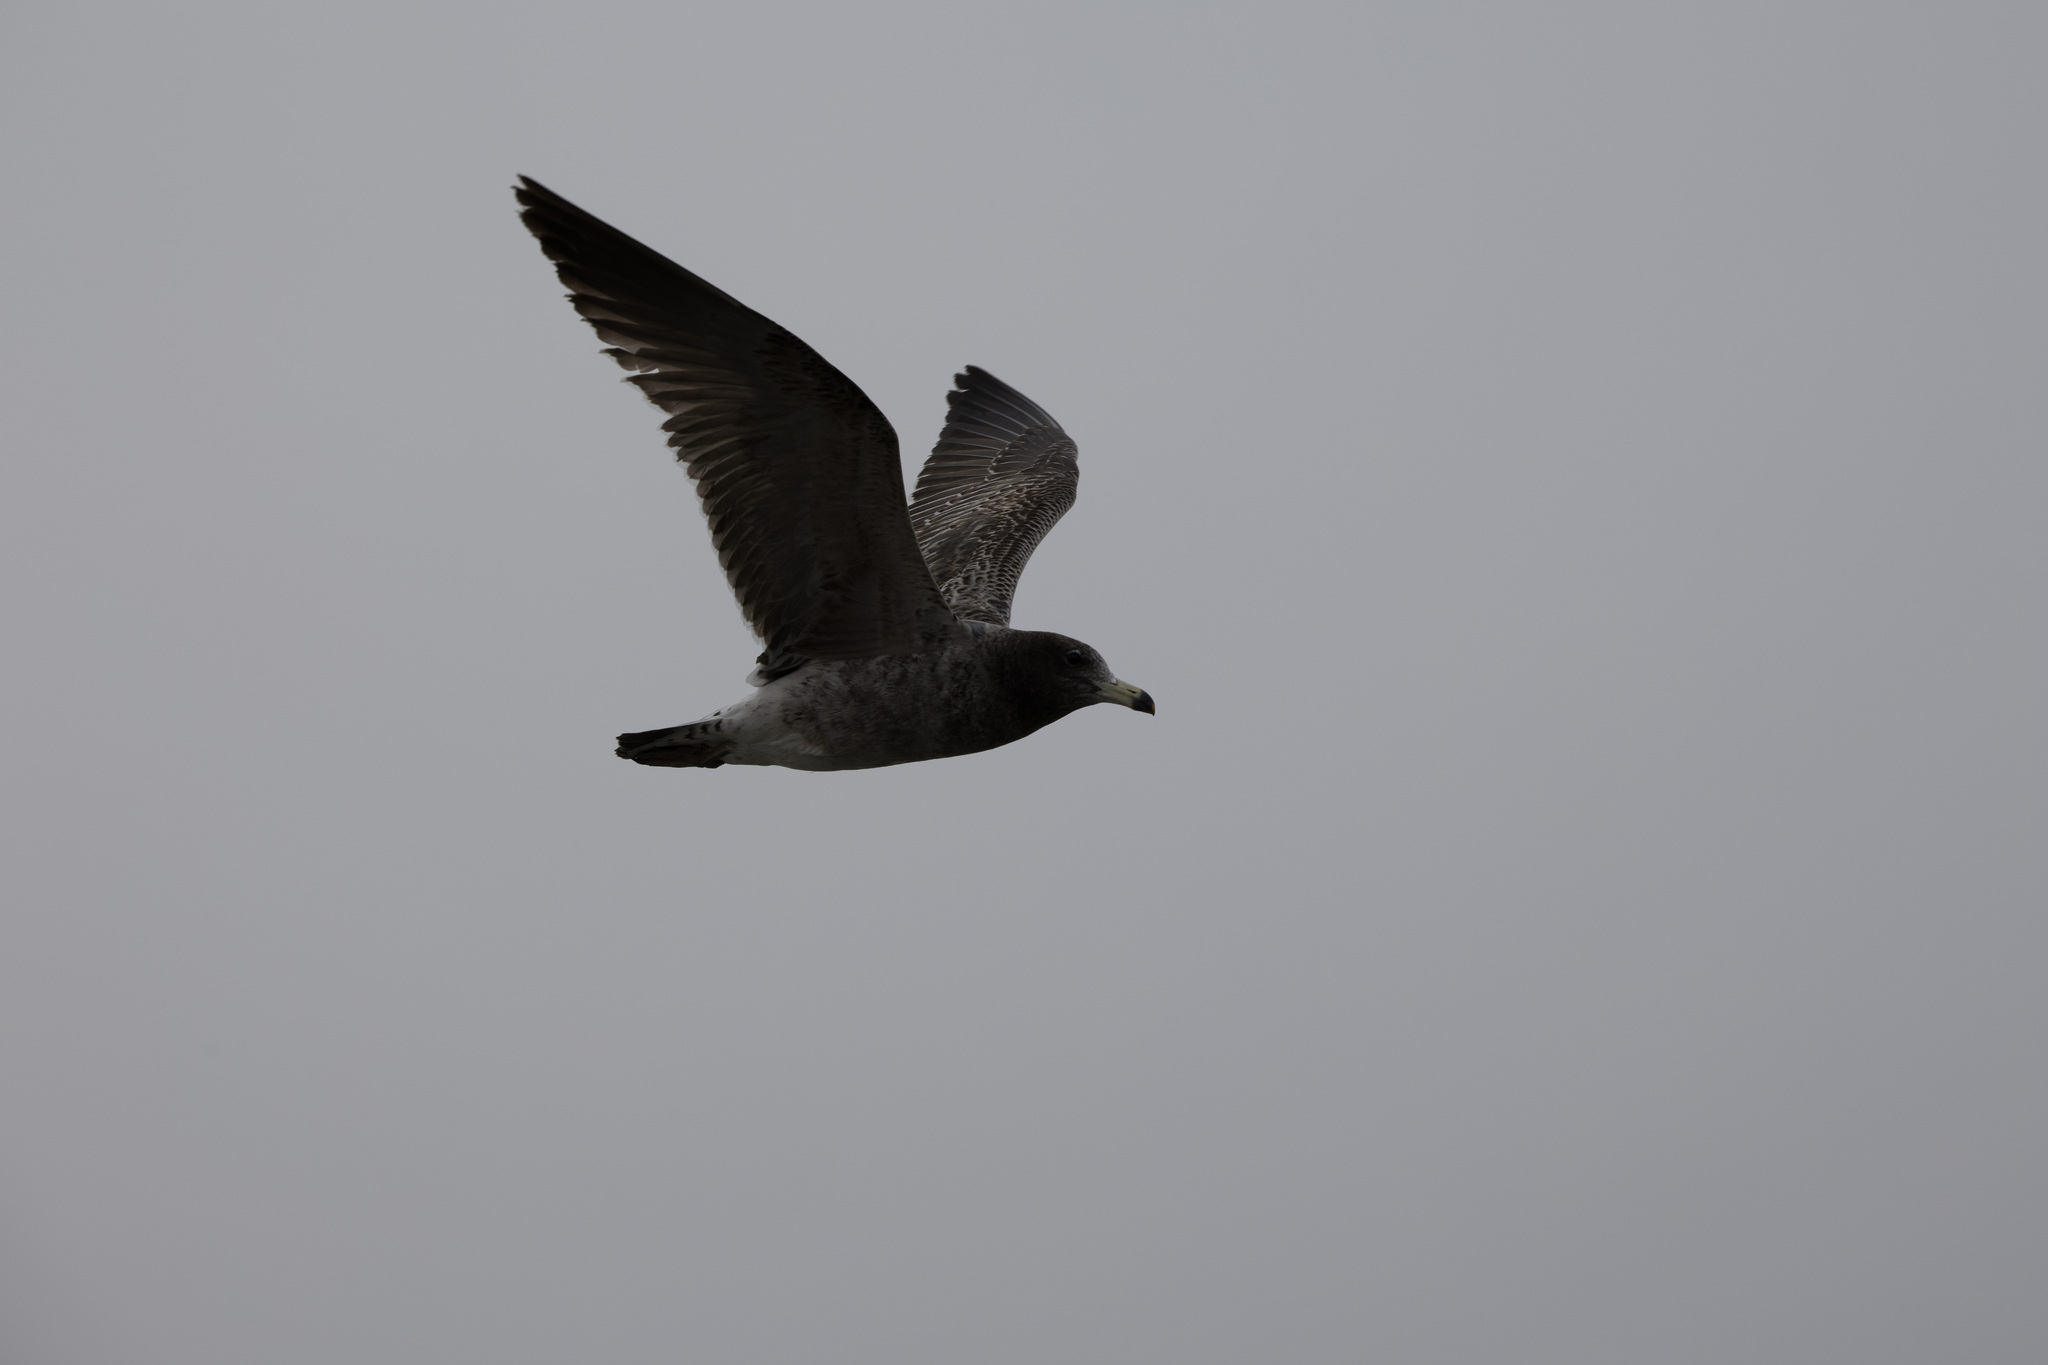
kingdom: Animalia
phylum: Chordata
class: Aves
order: Charadriiformes
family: Laridae
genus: Larus
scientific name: Larus belcheri
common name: Belcher's gull
